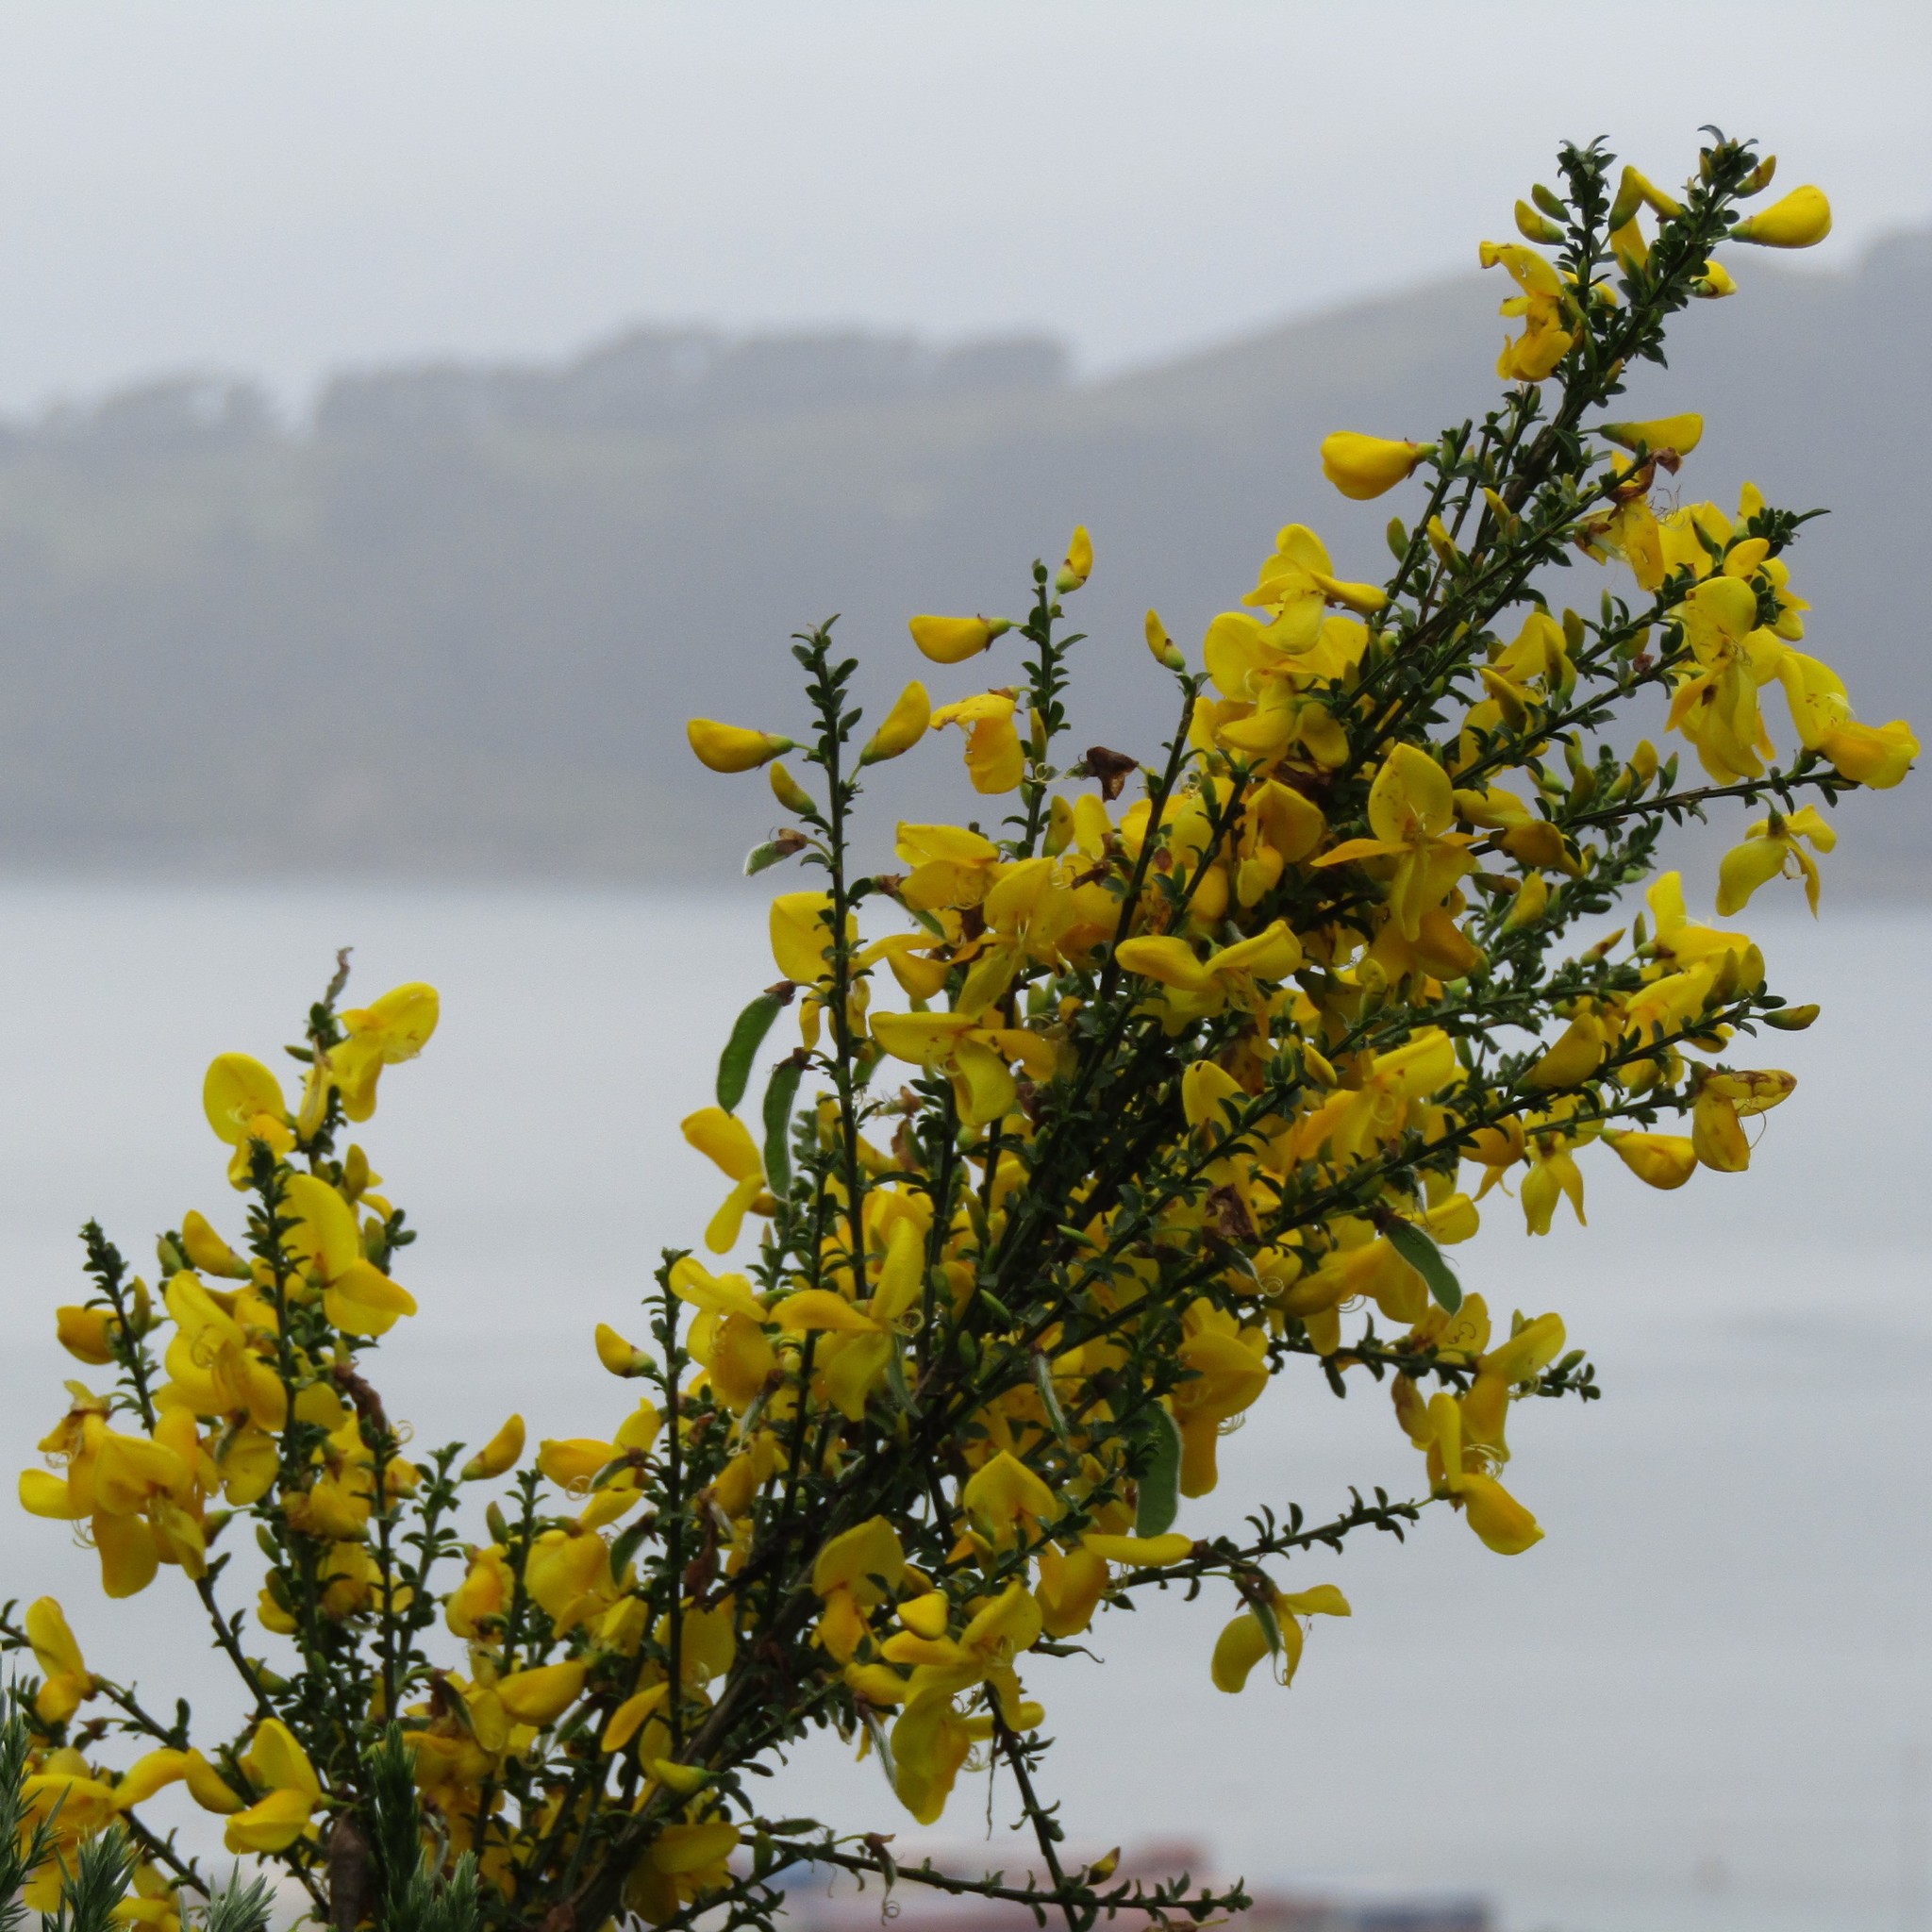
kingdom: Plantae
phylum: Tracheophyta
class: Magnoliopsida
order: Fabales
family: Fabaceae
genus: Cytisus
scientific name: Cytisus scoparius
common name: Scotch broom
